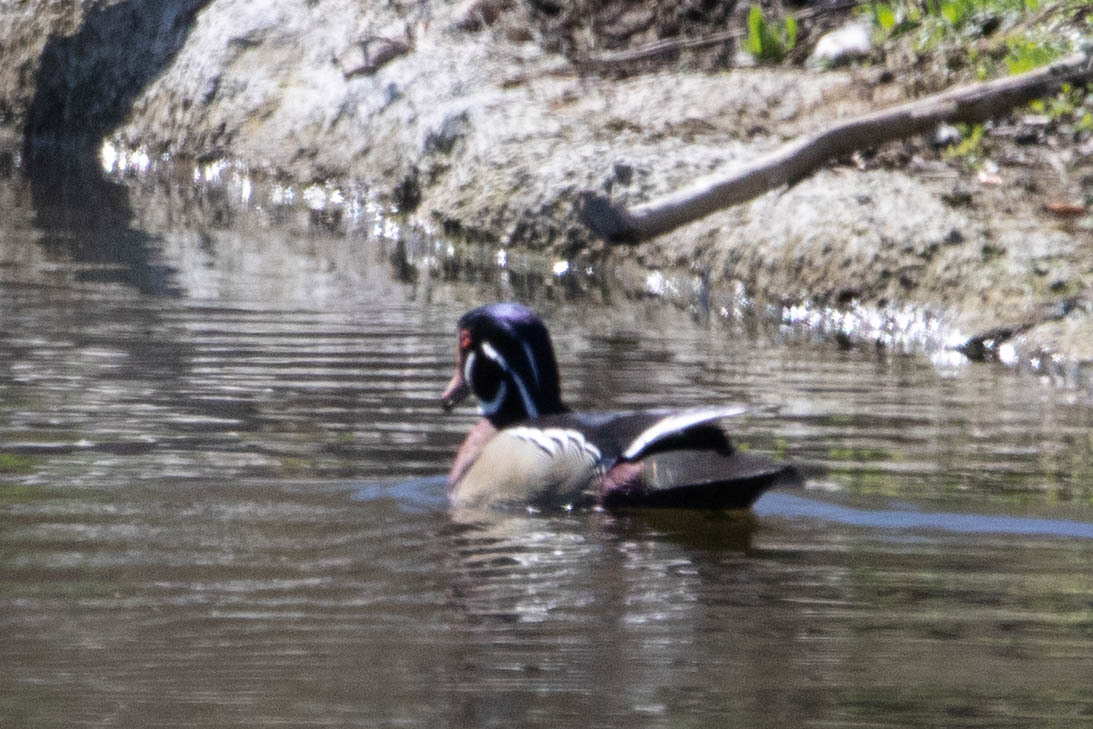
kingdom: Animalia
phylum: Chordata
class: Aves
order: Anseriformes
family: Anatidae
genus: Aix
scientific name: Aix sponsa
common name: Wood duck
